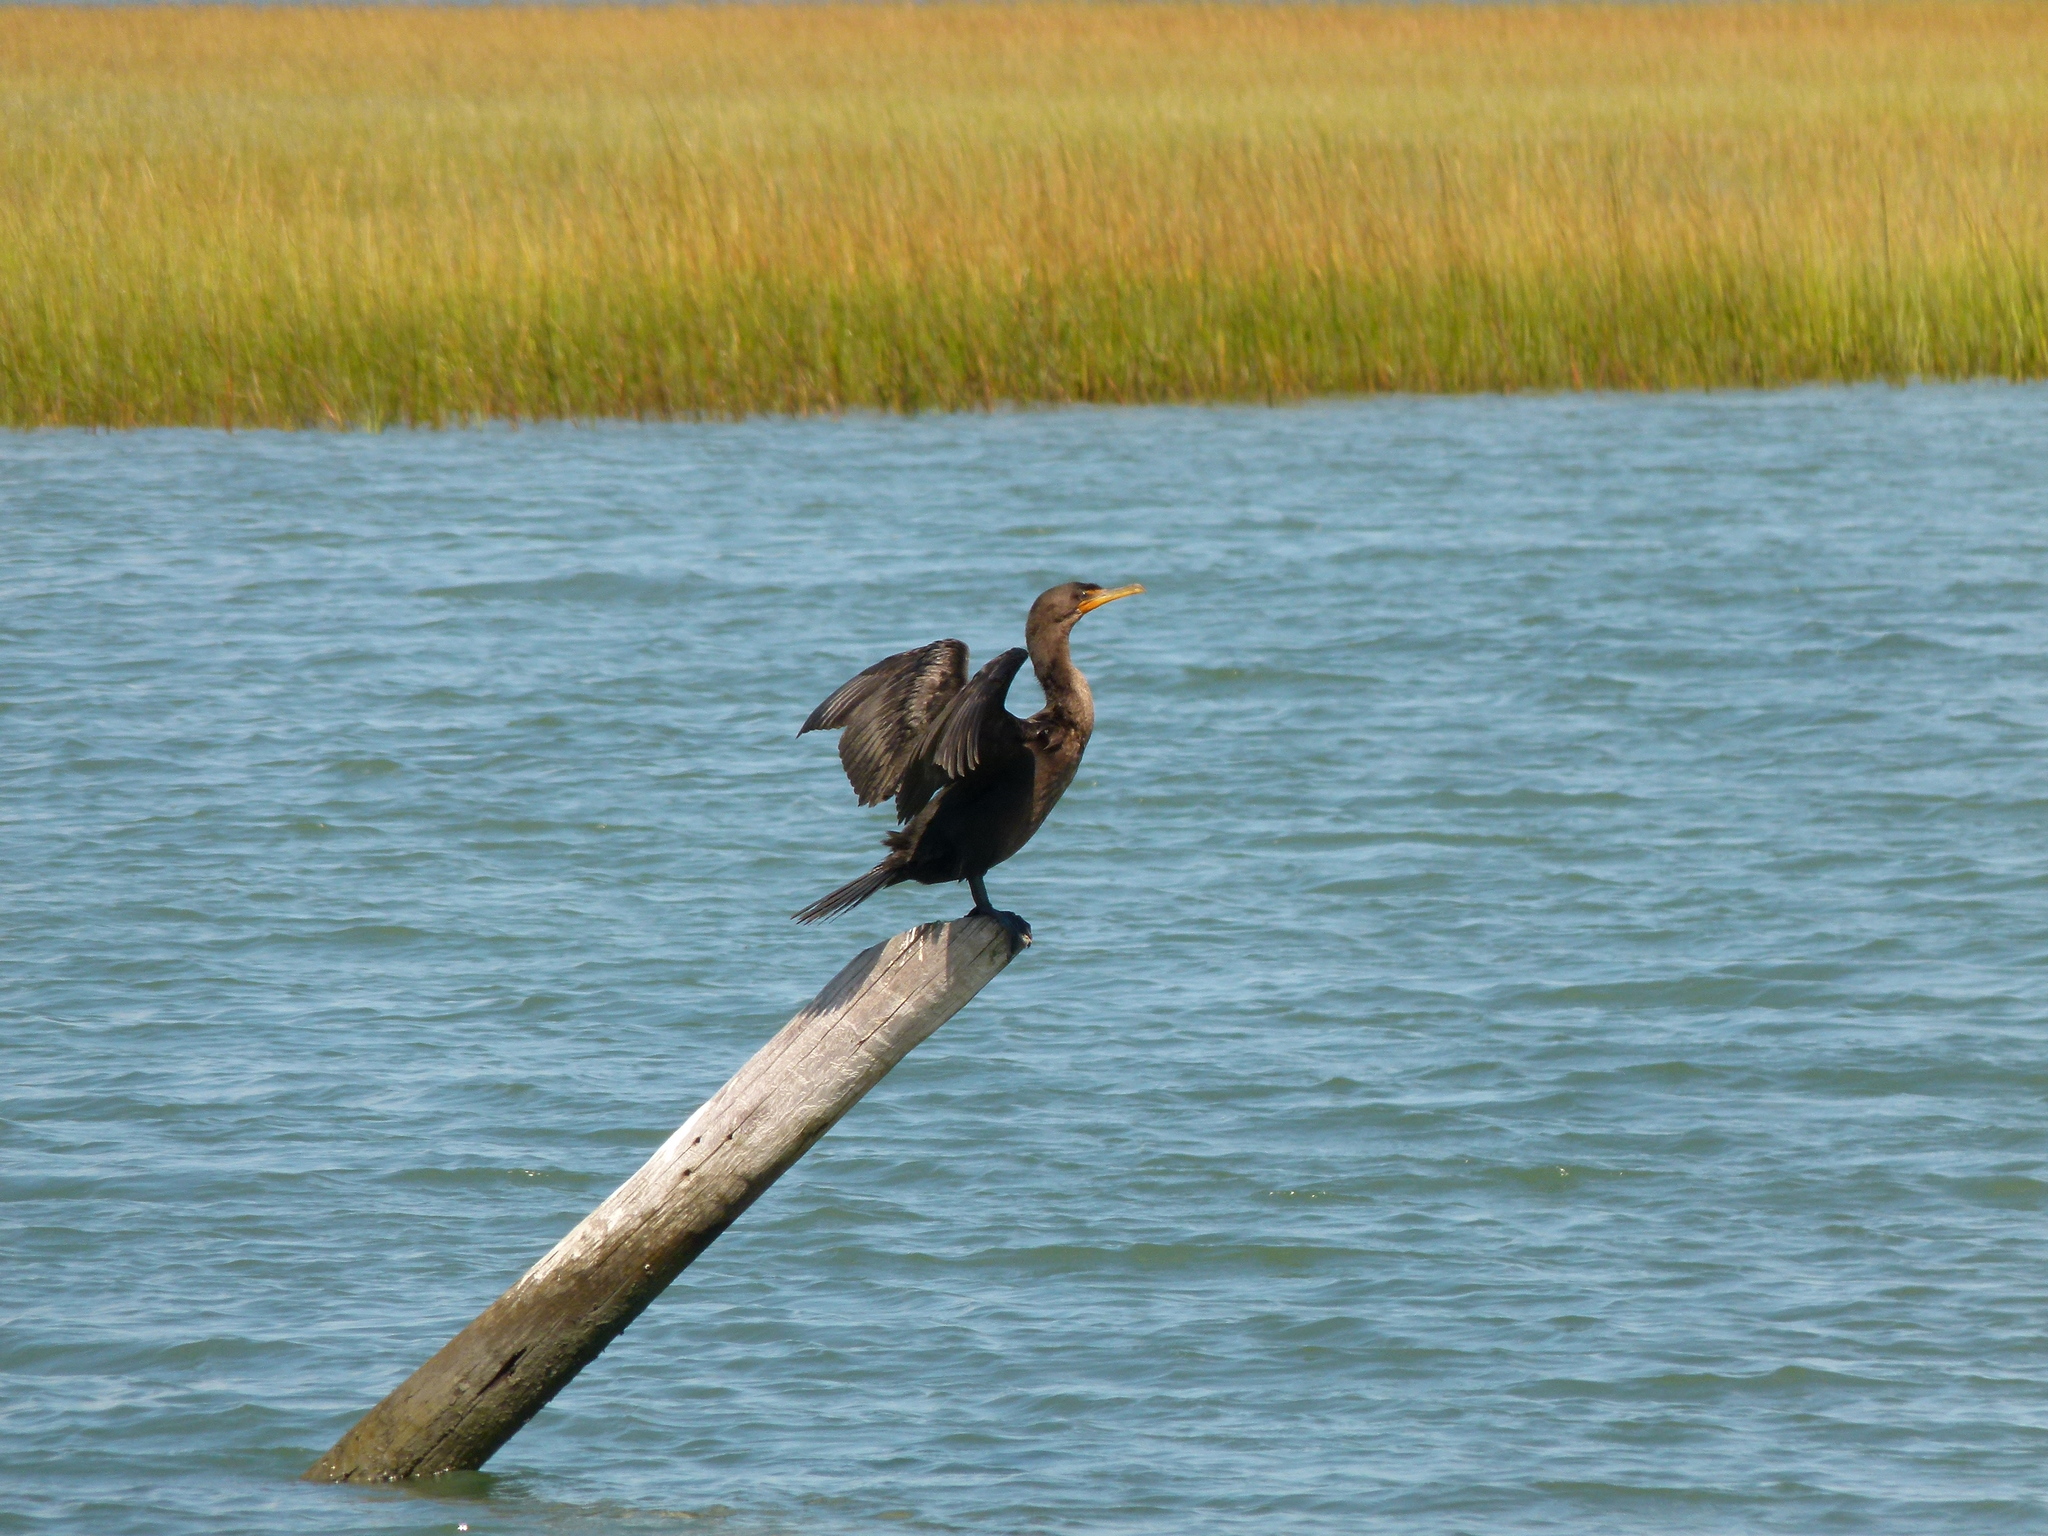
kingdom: Animalia
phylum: Chordata
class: Aves
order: Suliformes
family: Phalacrocoracidae
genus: Phalacrocorax
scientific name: Phalacrocorax auritus
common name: Double-crested cormorant
